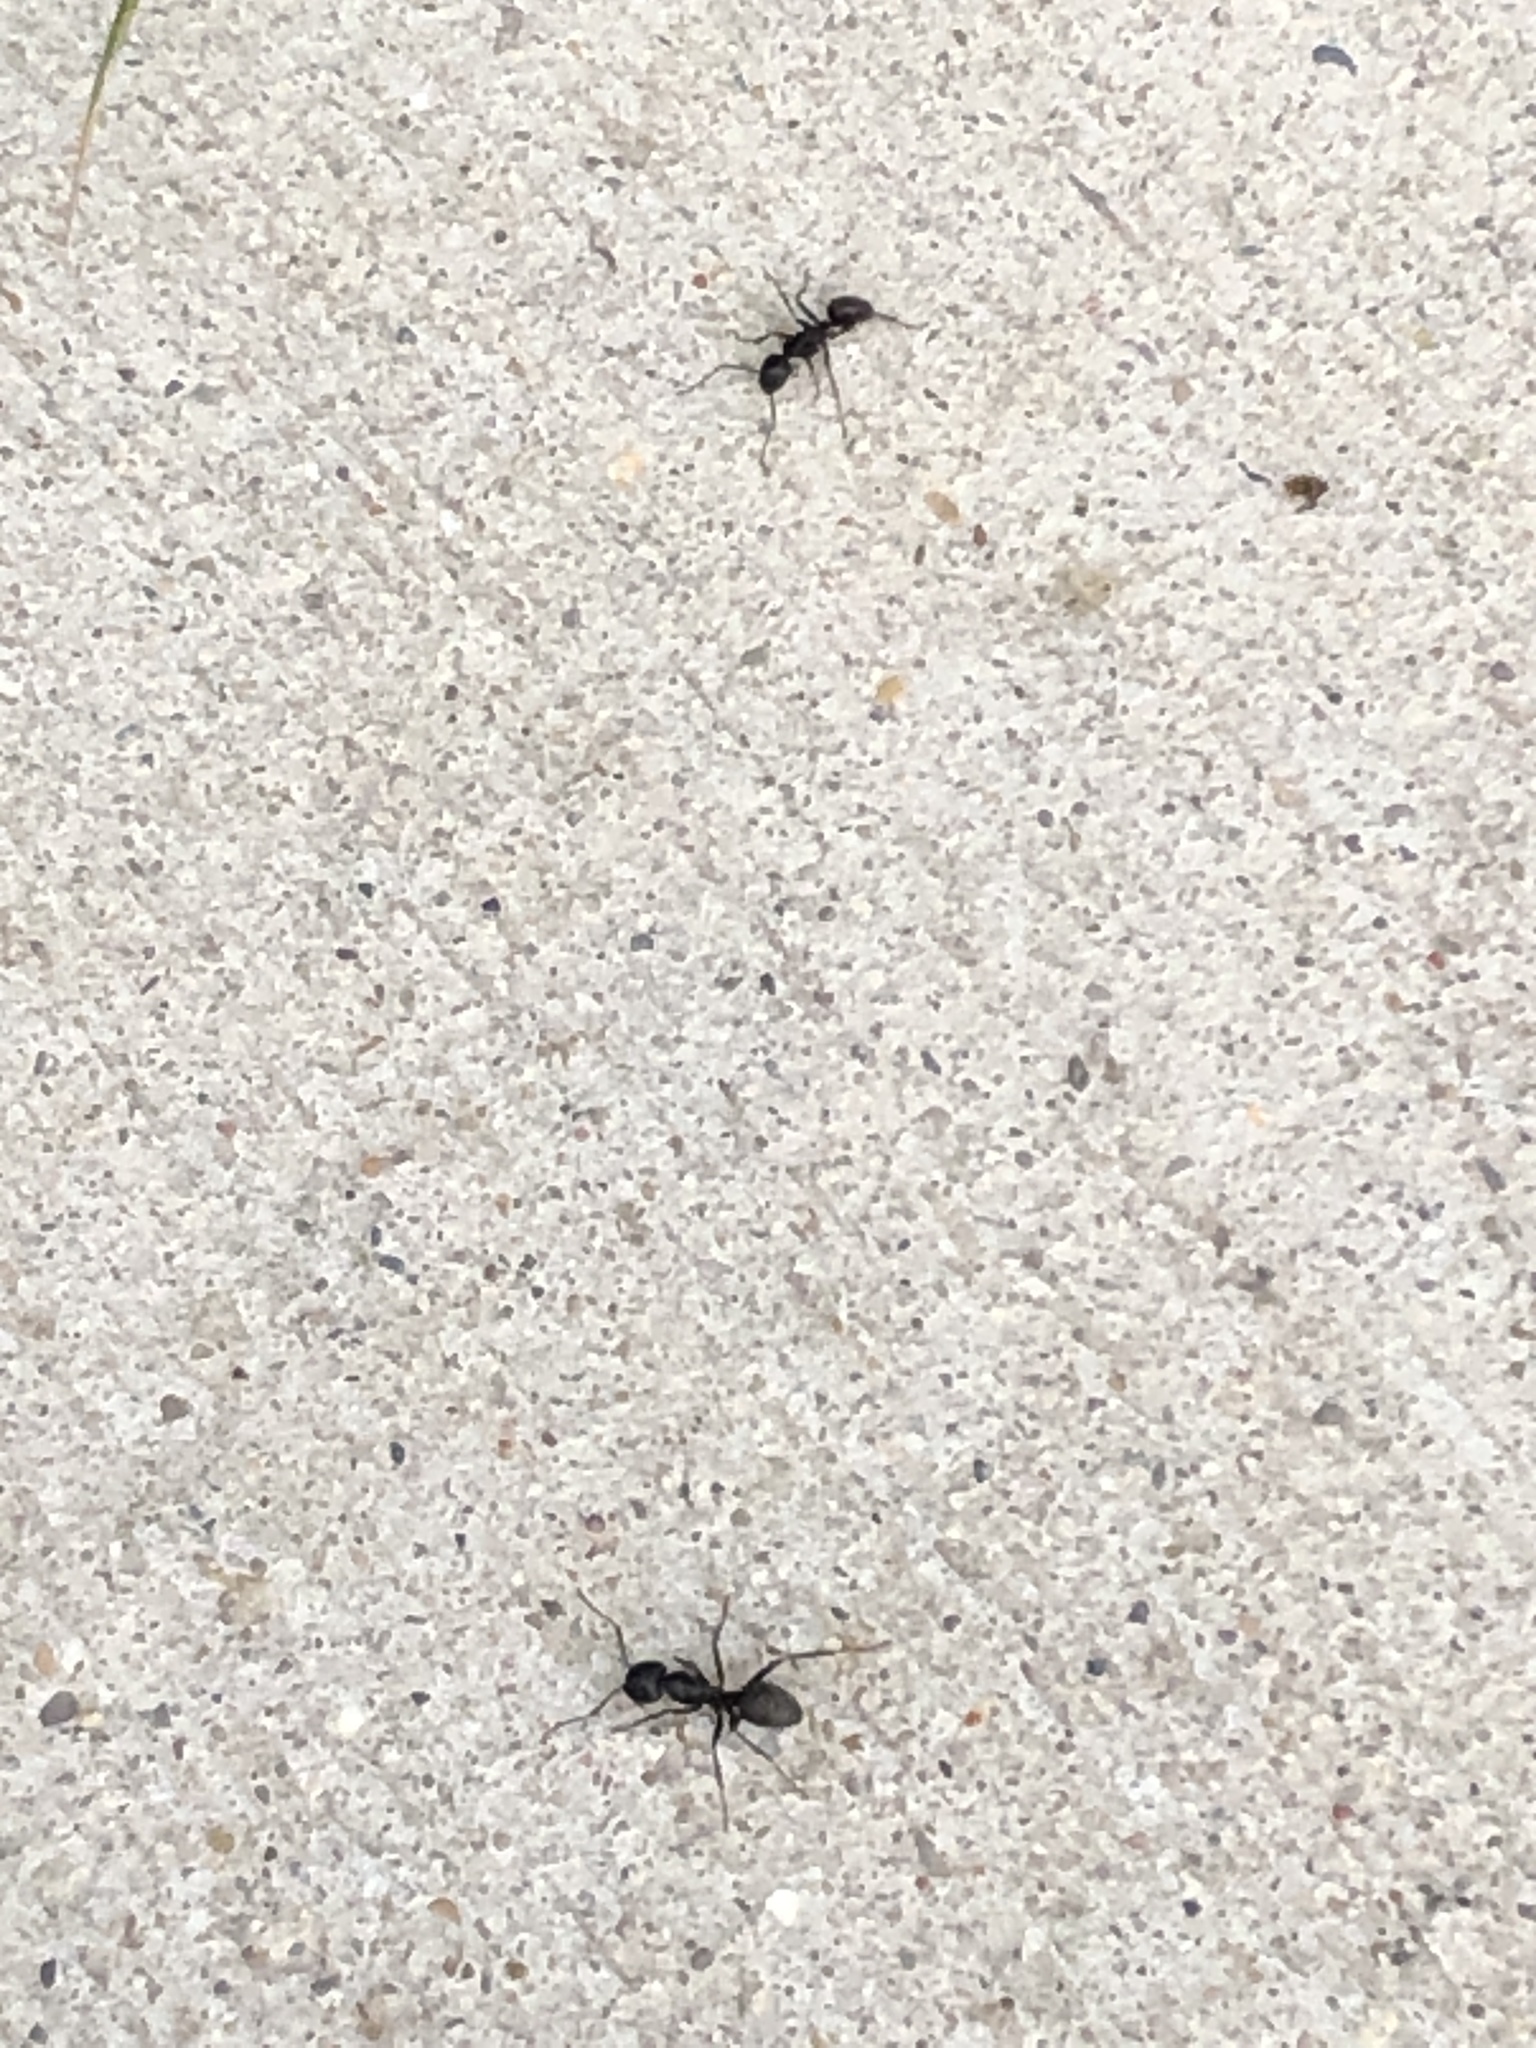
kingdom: Animalia
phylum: Arthropoda
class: Insecta
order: Hymenoptera
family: Formicidae
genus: Camponotus
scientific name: Camponotus pennsylvanicus
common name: Black carpenter ant
